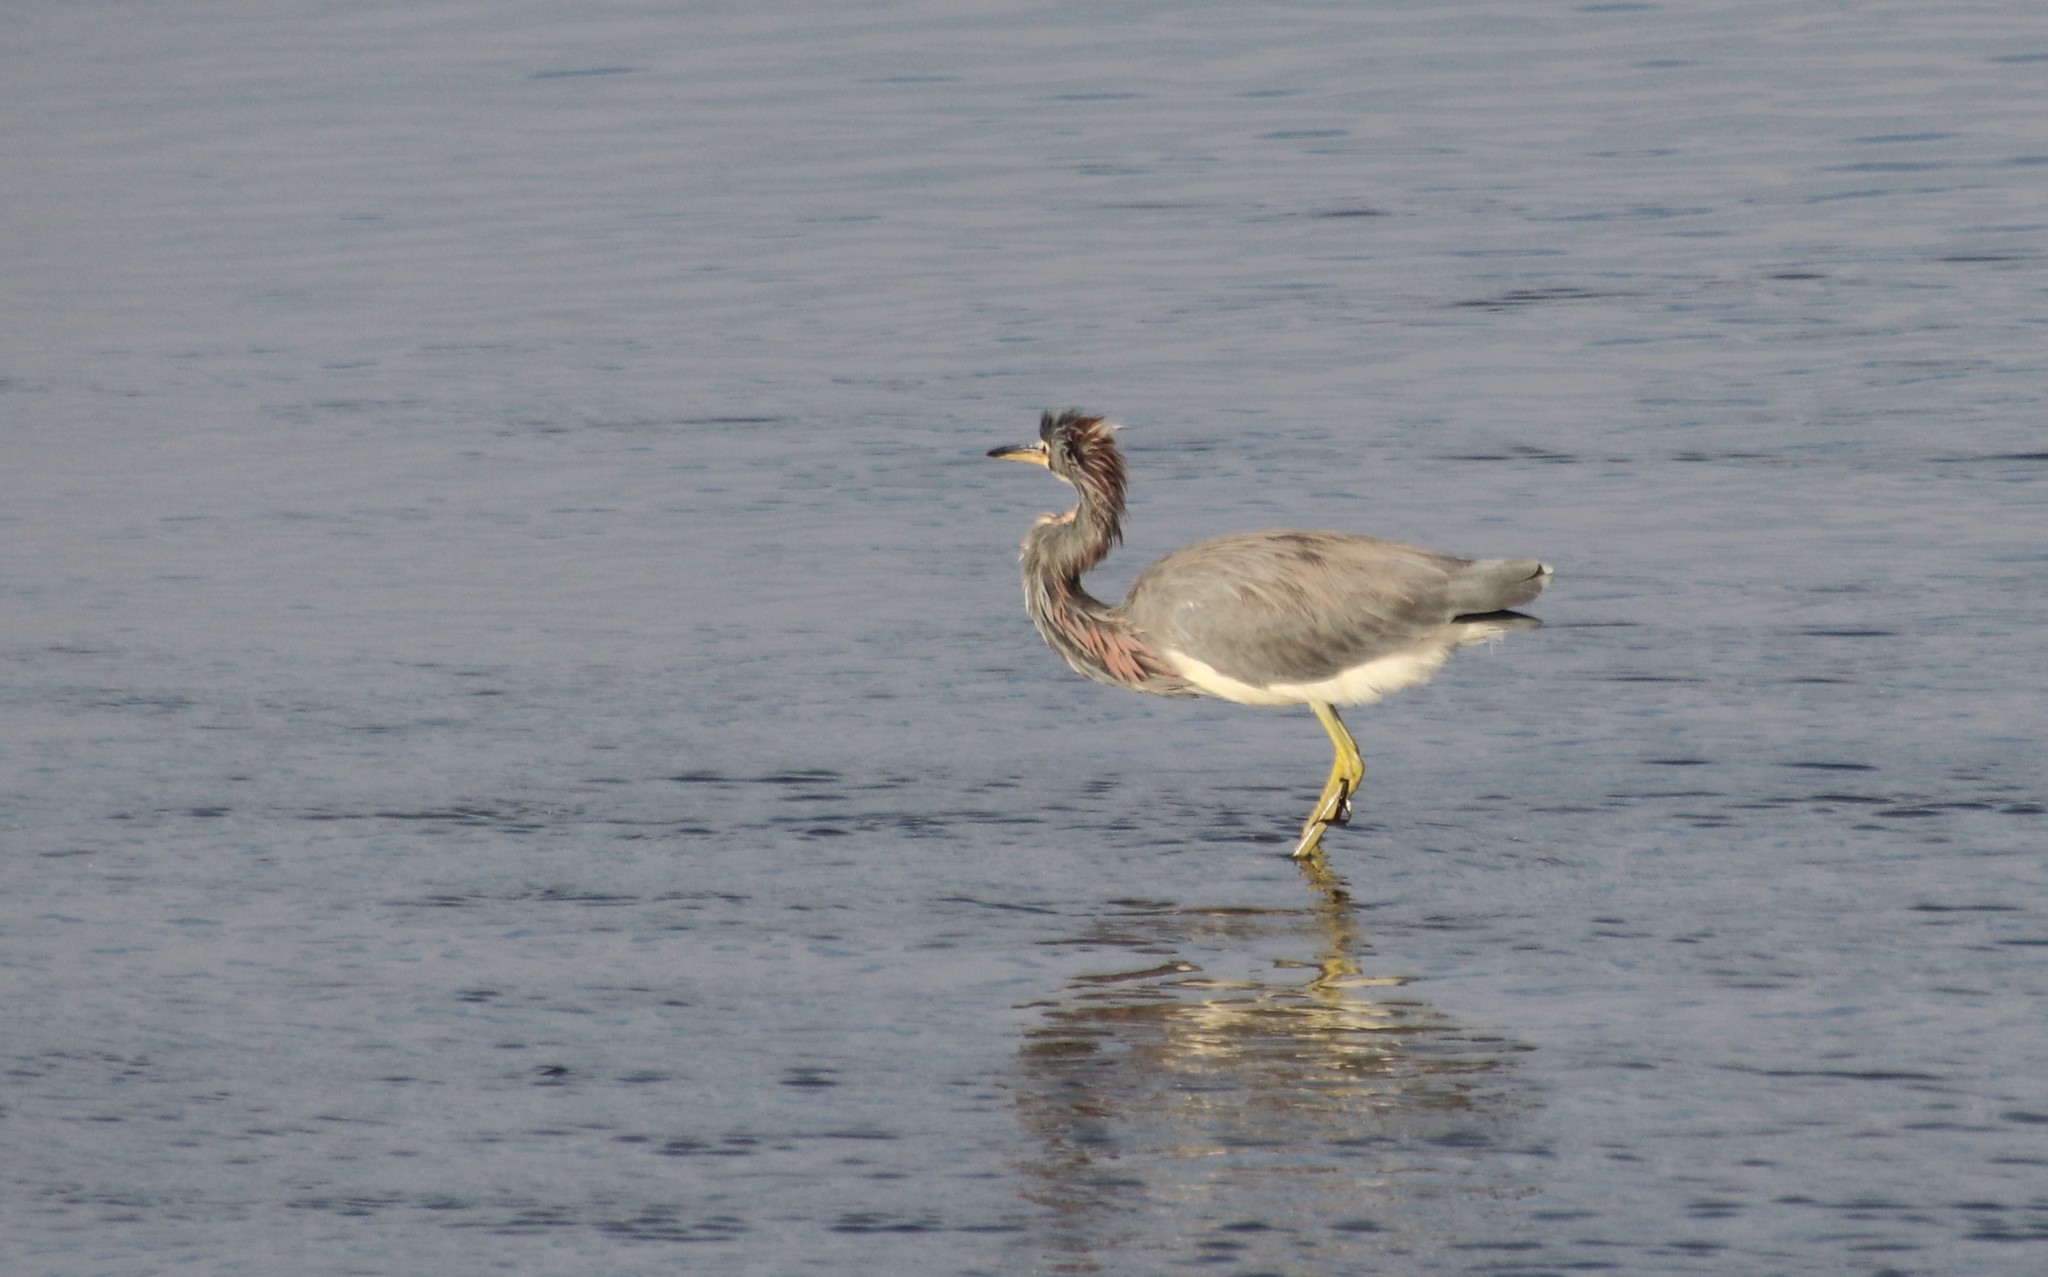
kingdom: Animalia
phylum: Chordata
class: Aves
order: Pelecaniformes
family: Ardeidae
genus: Egretta
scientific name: Egretta tricolor
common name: Tricolored heron
